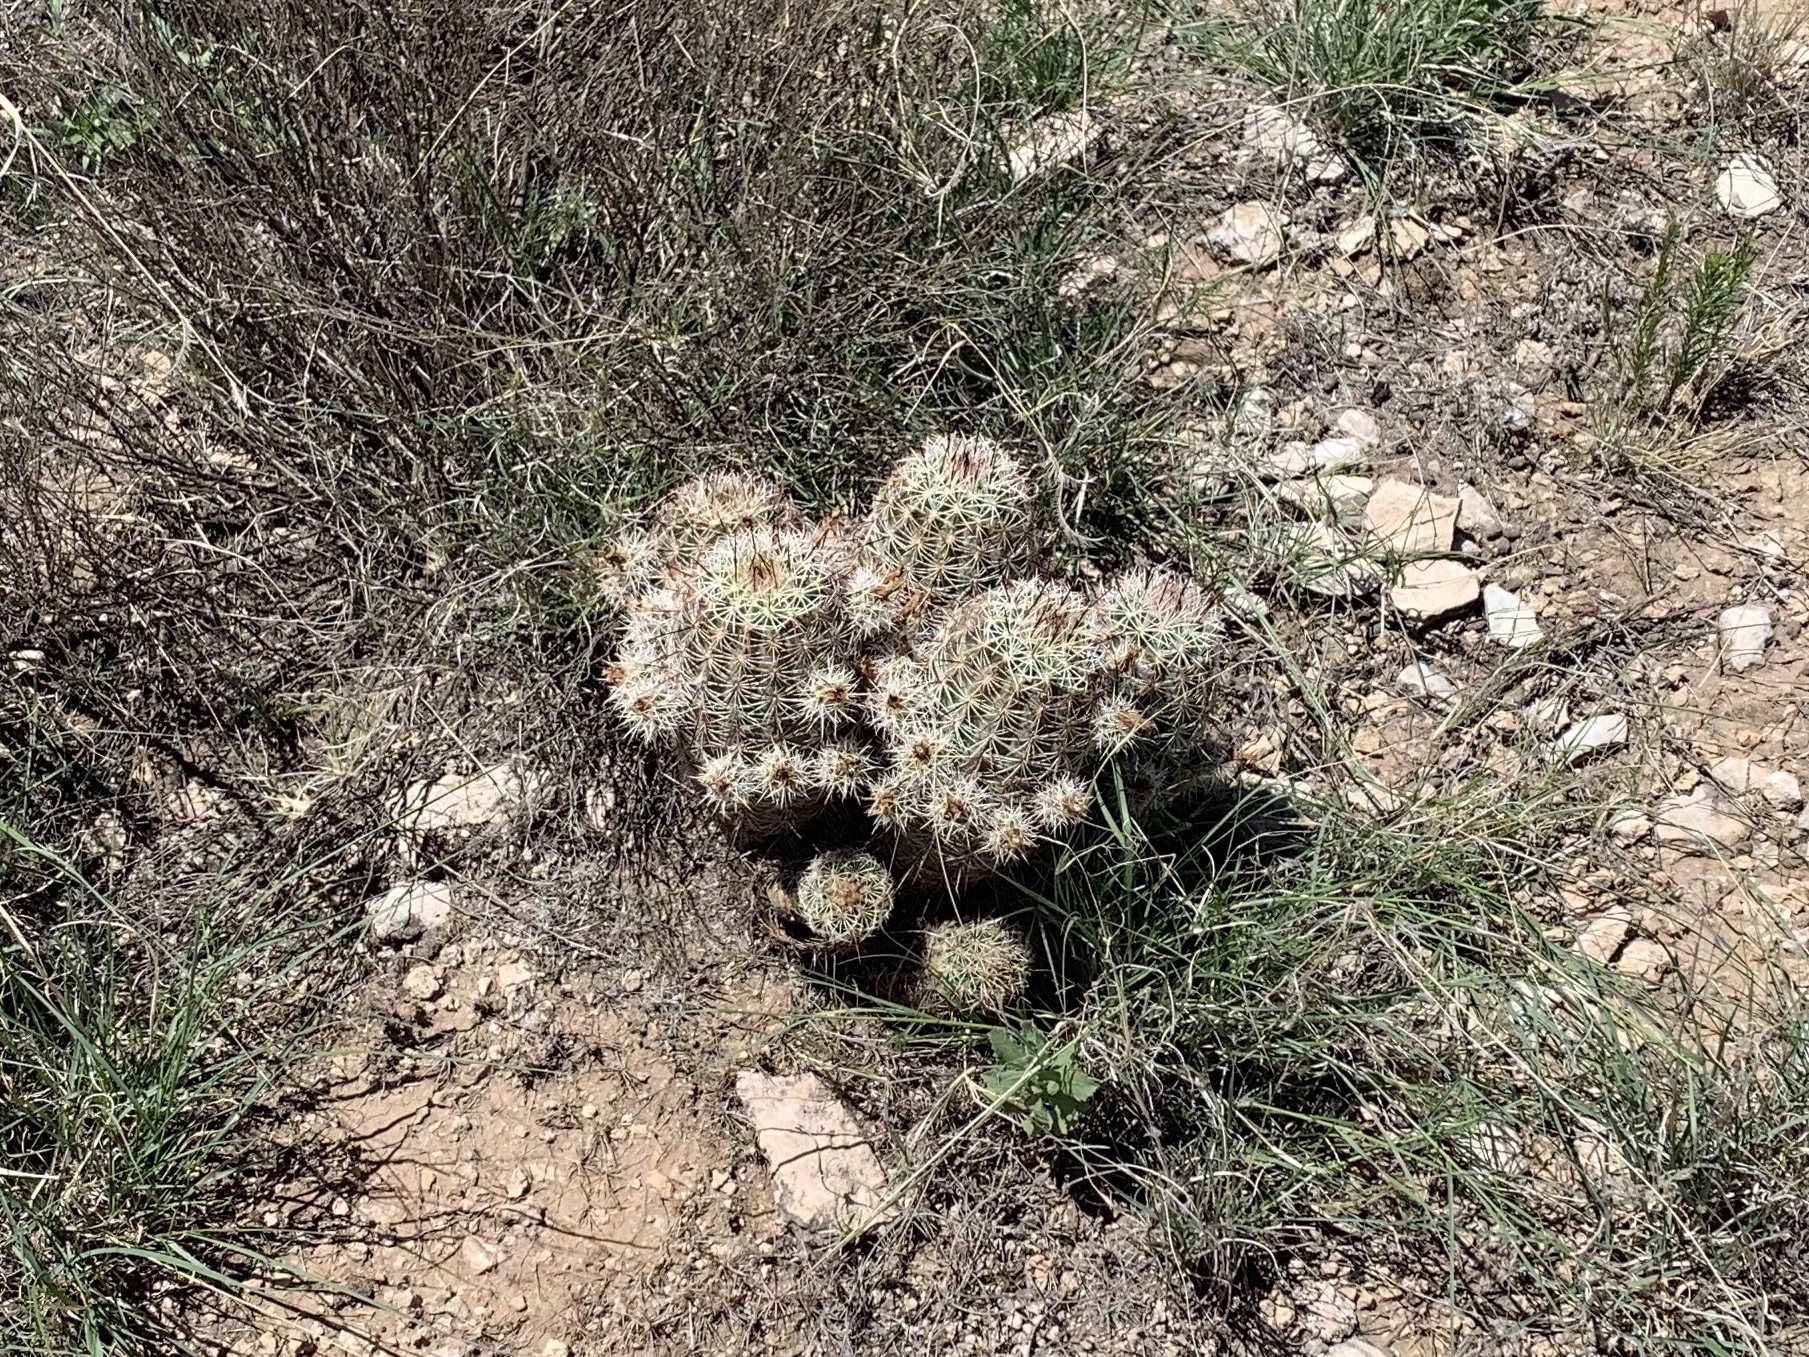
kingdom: Plantae
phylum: Tracheophyta
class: Magnoliopsida
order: Caryophyllales
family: Cactaceae
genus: Echinocereus
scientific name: Echinocereus viridiflorus
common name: Nylon hedgehog cactus
